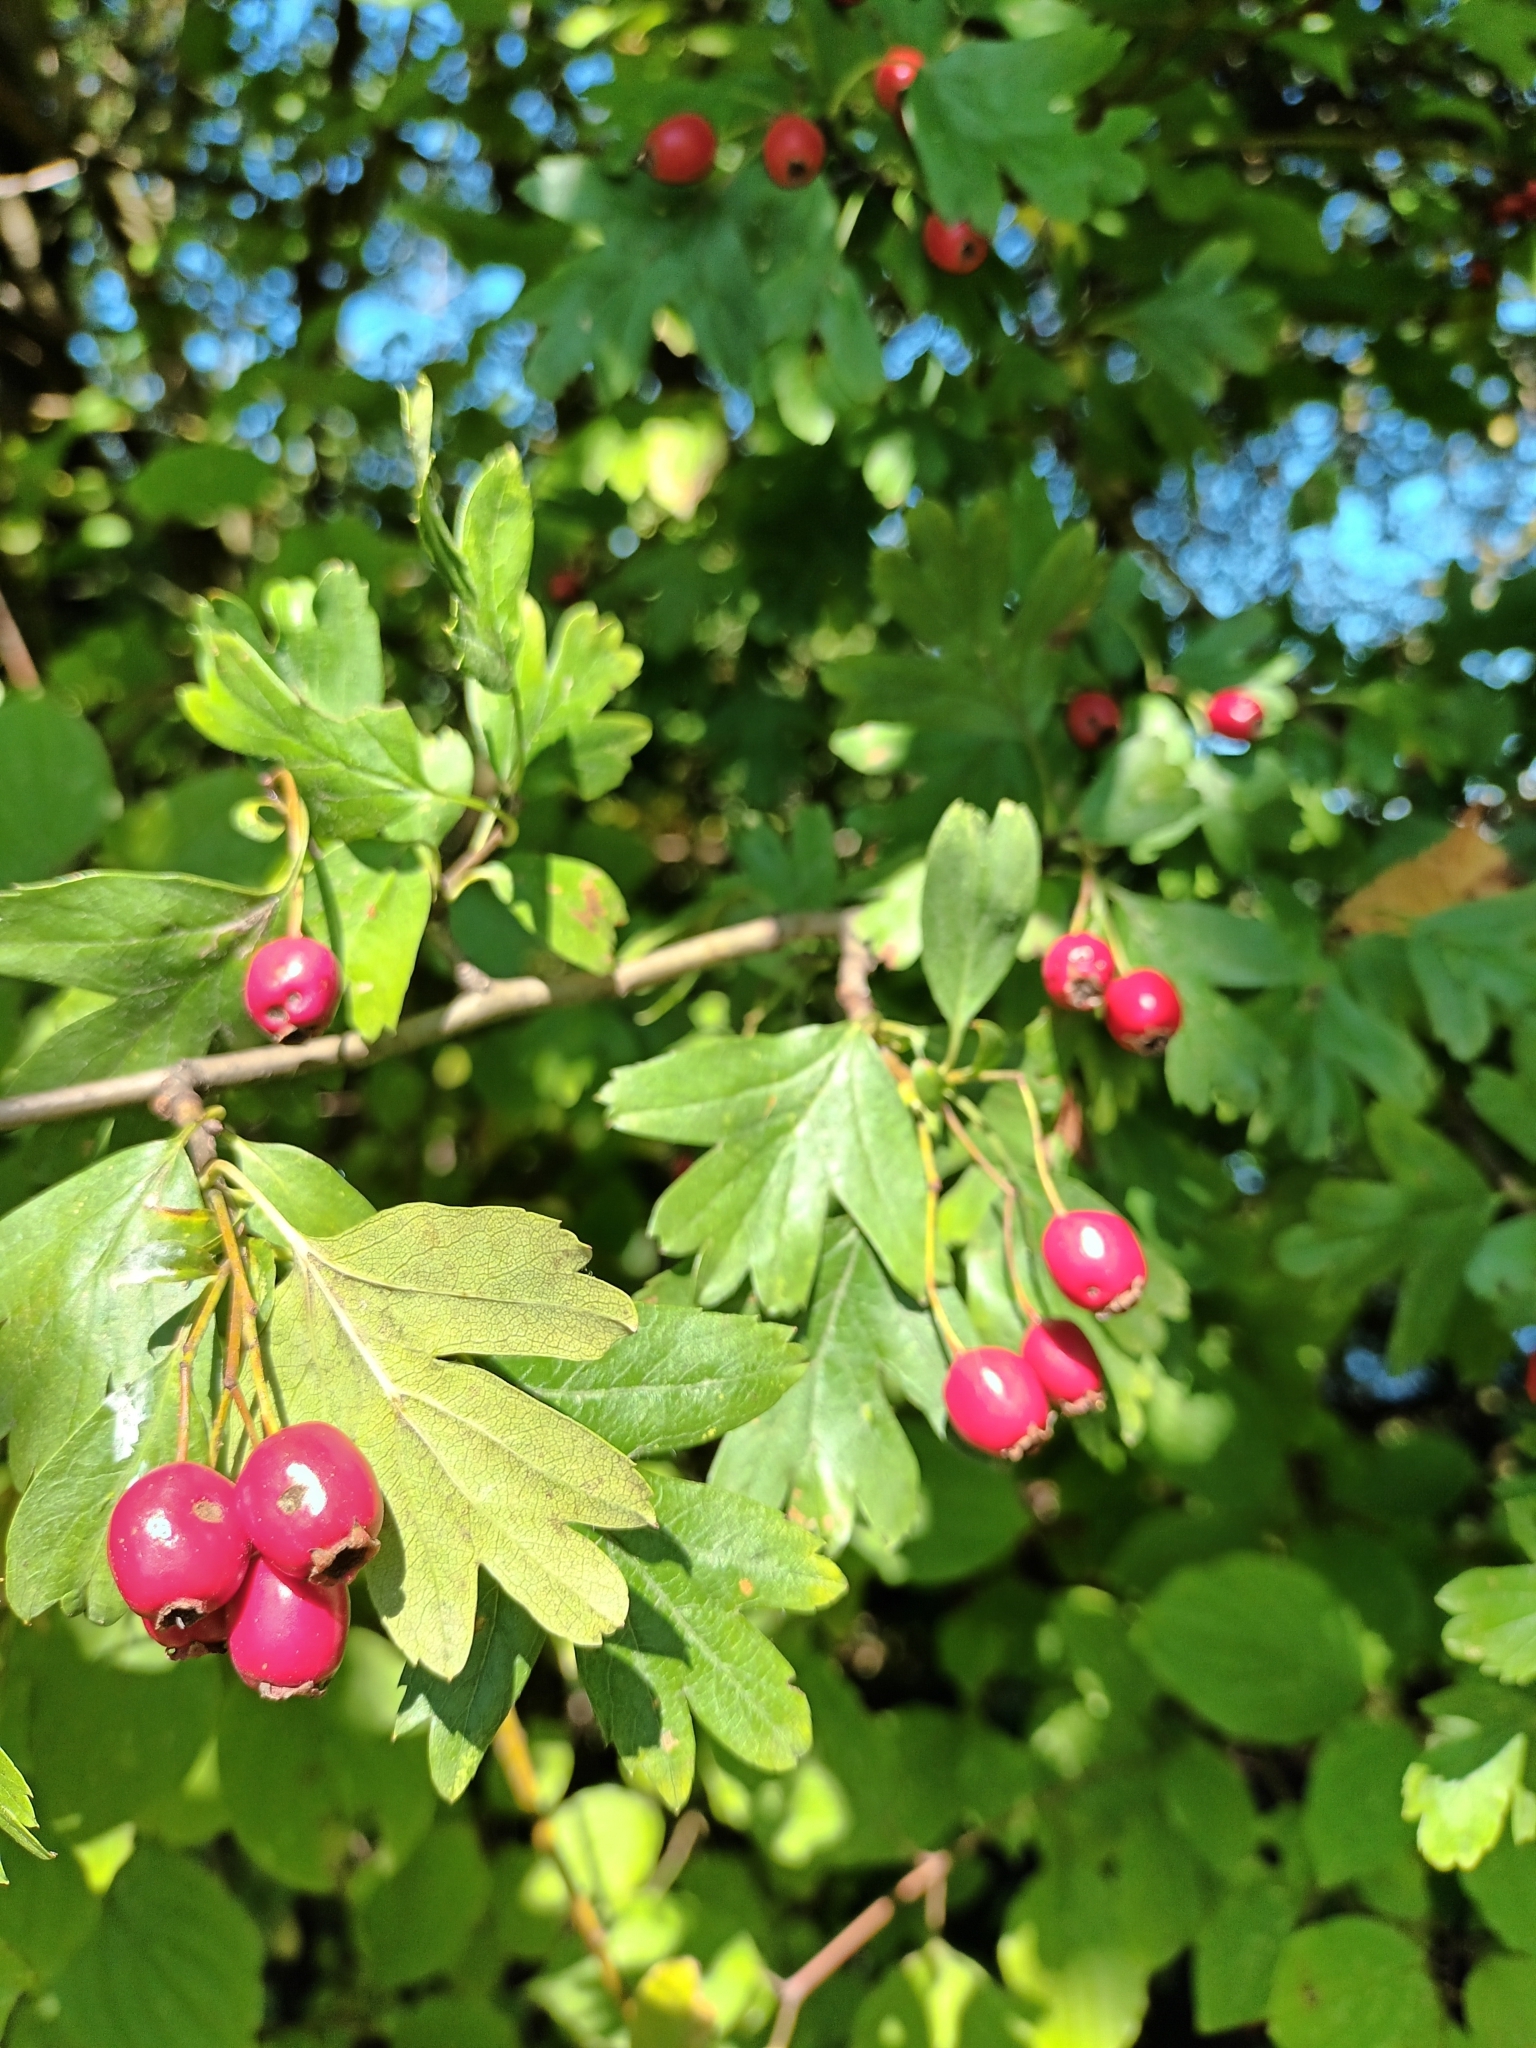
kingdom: Plantae
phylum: Tracheophyta
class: Magnoliopsida
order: Rosales
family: Rosaceae
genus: Crataegus
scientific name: Crataegus monogyna
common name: Hawthorn
